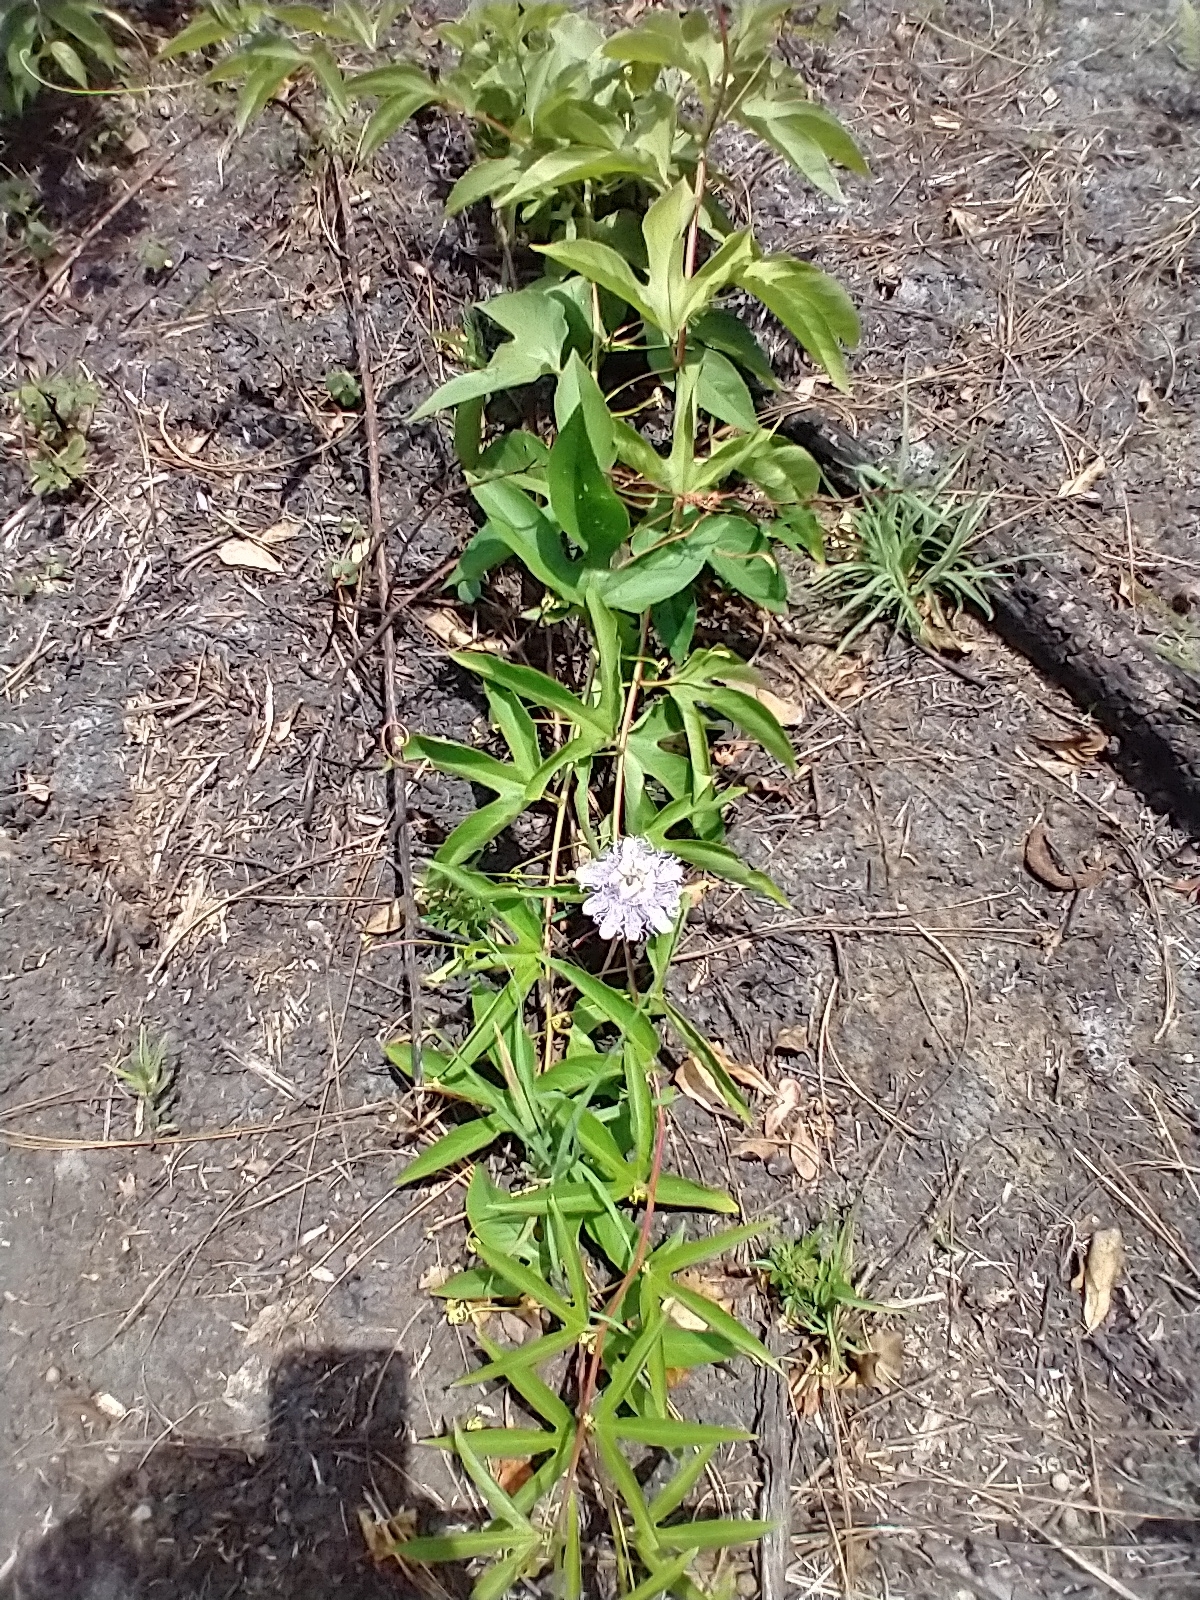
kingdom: Plantae
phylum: Tracheophyta
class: Magnoliopsida
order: Malpighiales
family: Passifloraceae
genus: Passiflora
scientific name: Passiflora incarnata
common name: Apricot-vine
